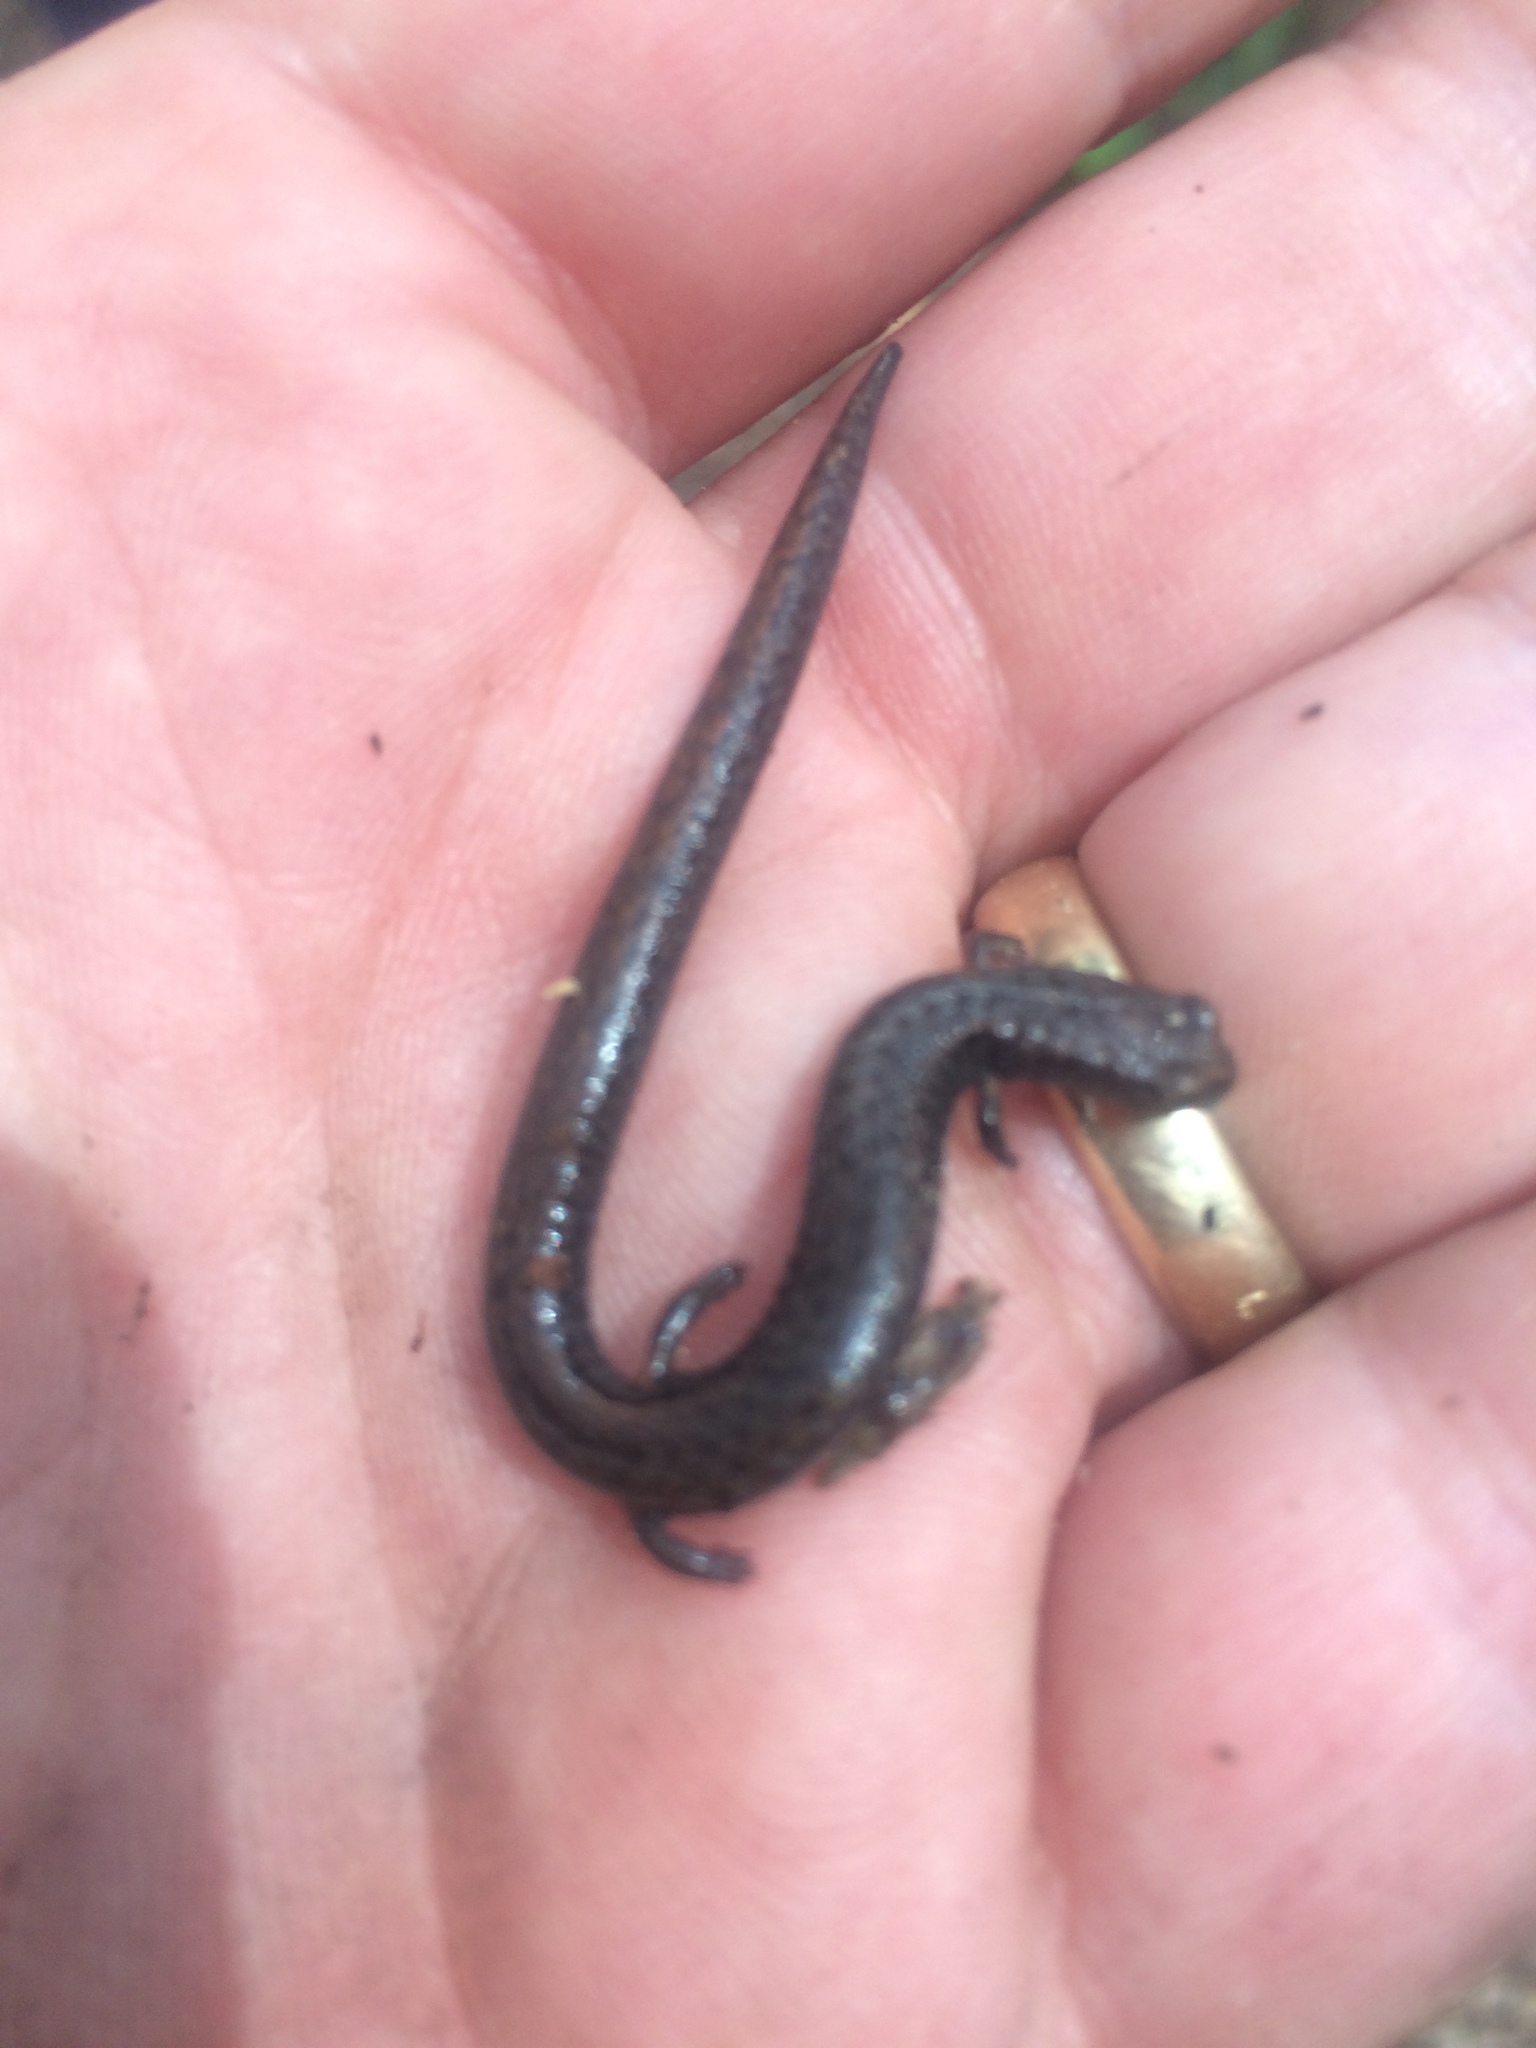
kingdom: Animalia
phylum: Chordata
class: Amphibia
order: Caudata
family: Plethodontidae
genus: Batrachoseps
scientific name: Batrachoseps attenuatus
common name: California slender salamander
